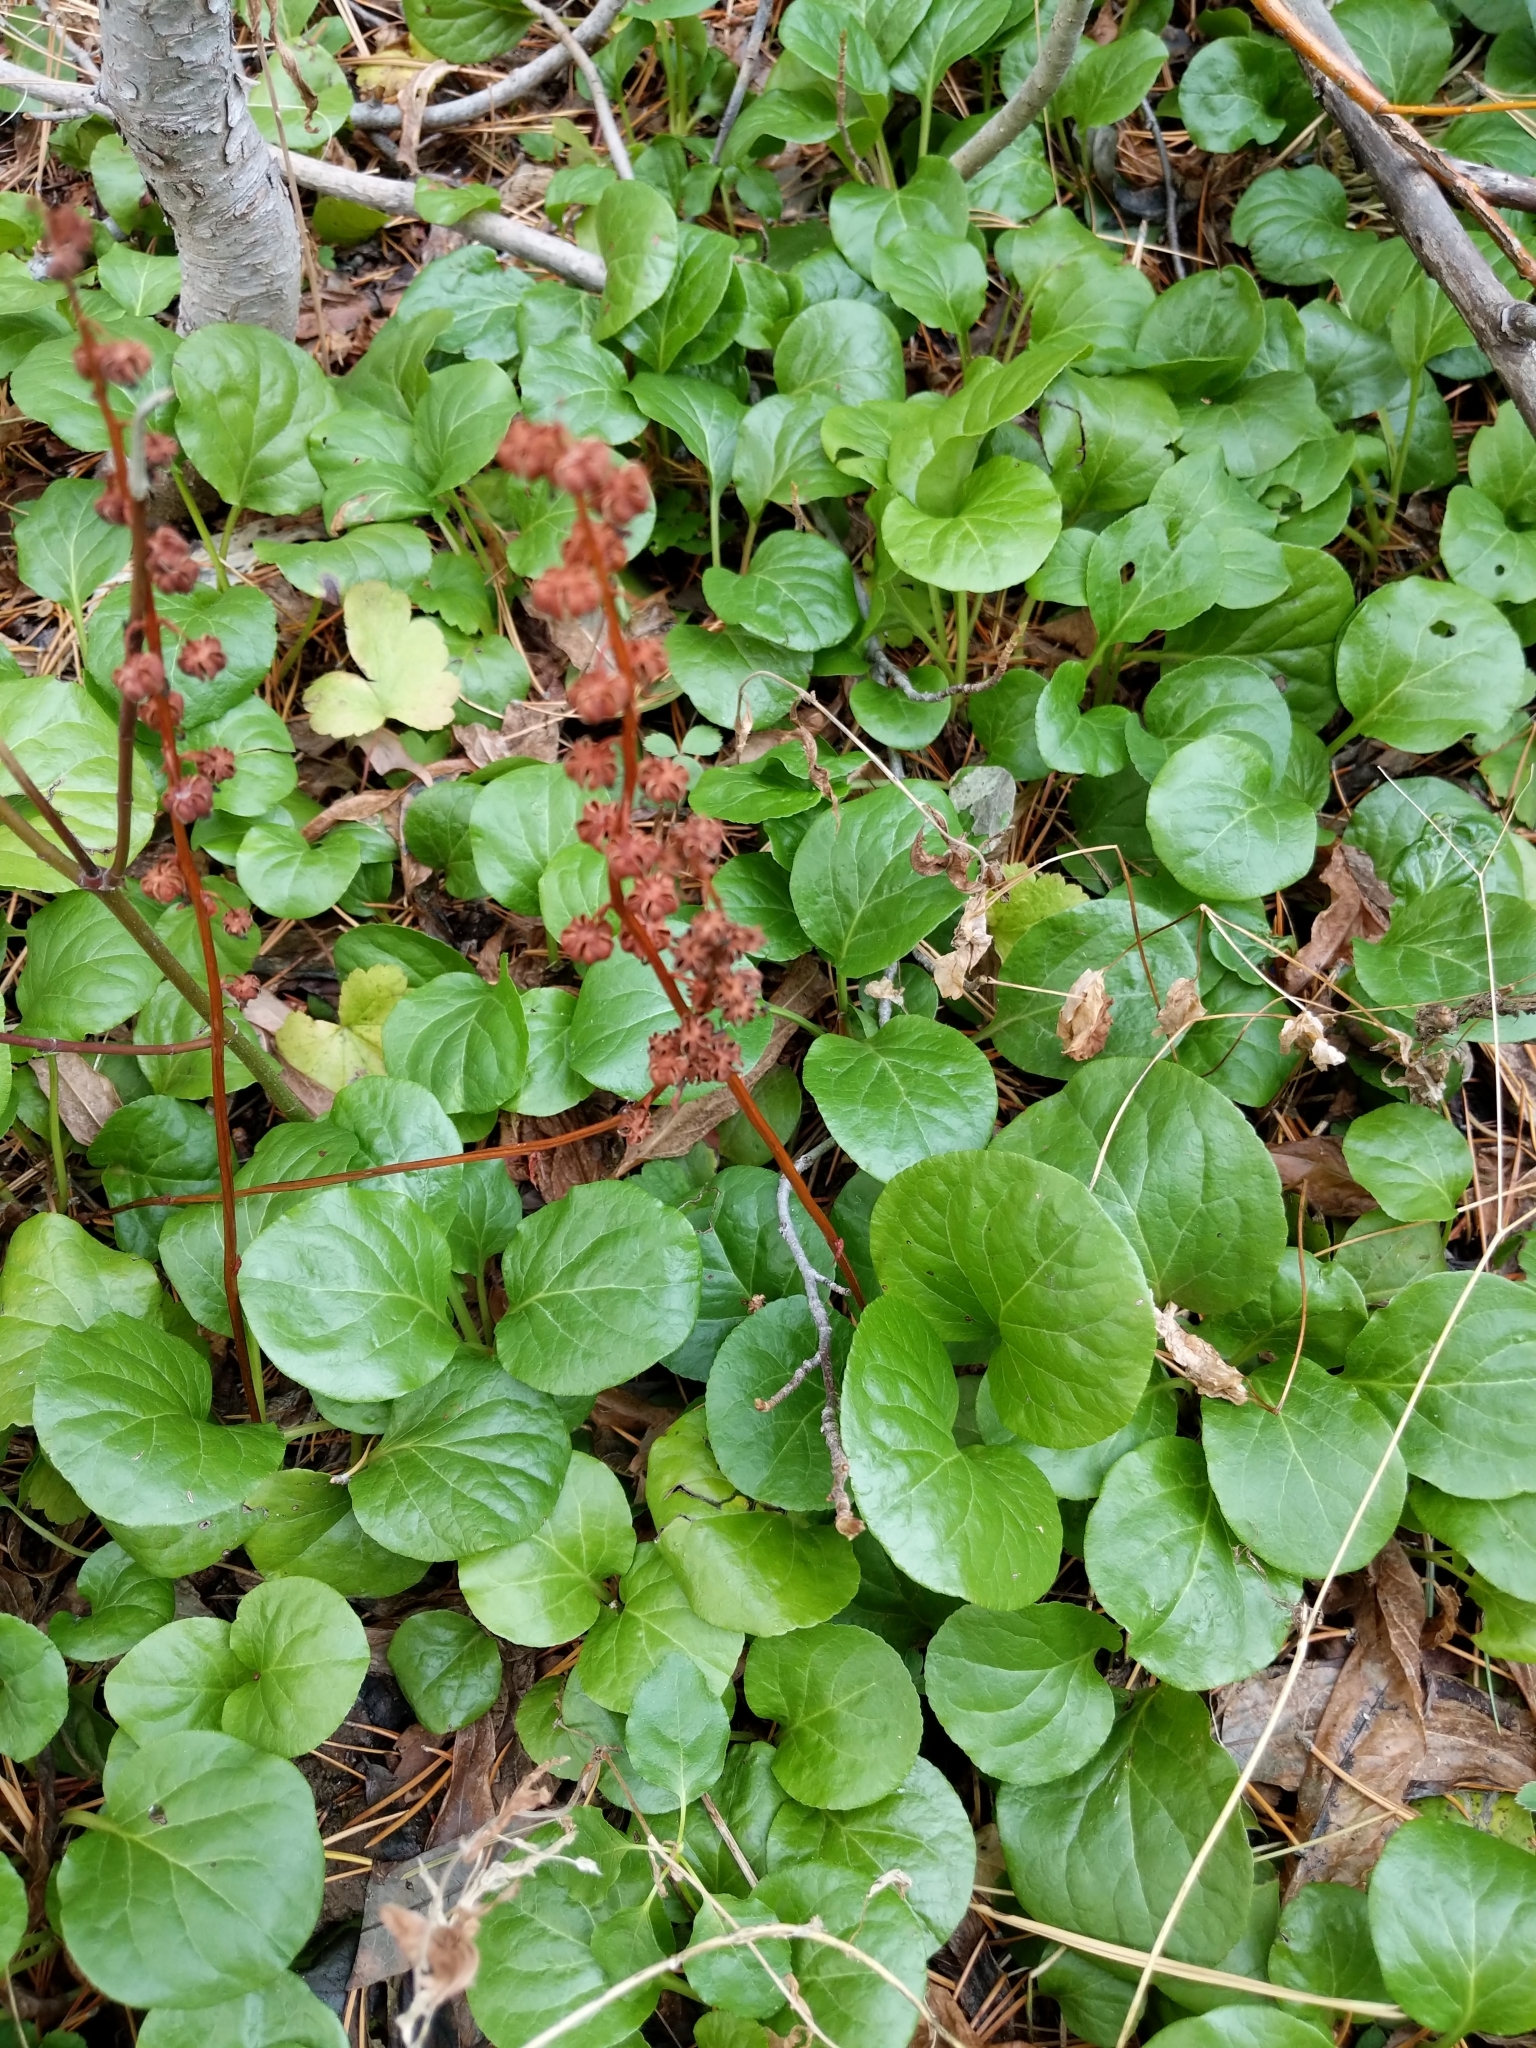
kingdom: Plantae
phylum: Tracheophyta
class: Magnoliopsida
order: Ericales
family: Ericaceae
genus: Pyrola
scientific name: Pyrola asarifolia
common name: Bog wintergreen
